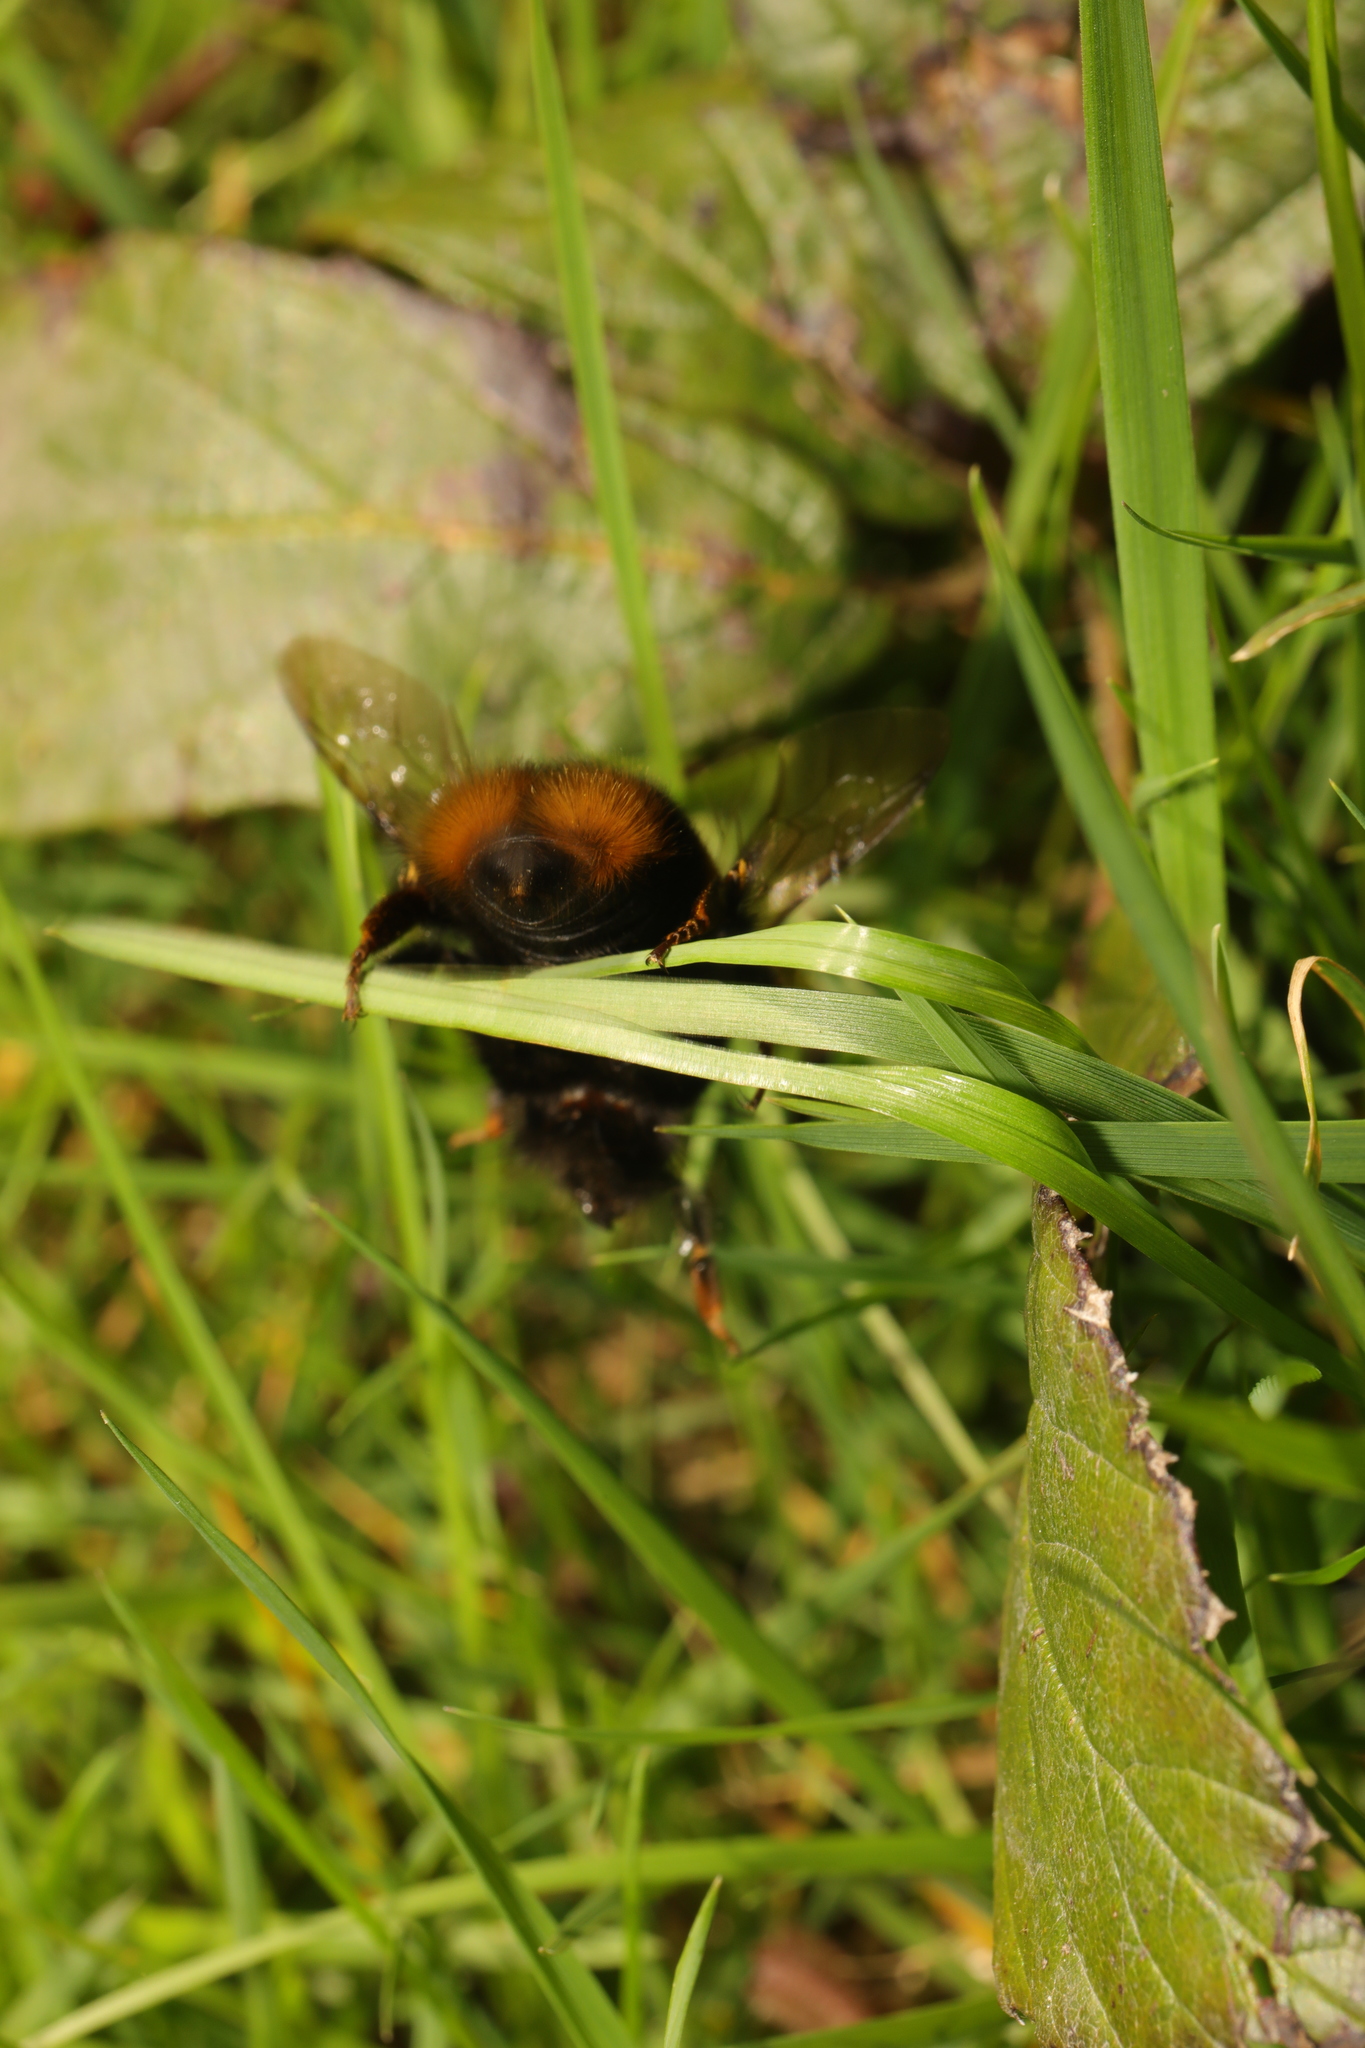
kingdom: Animalia
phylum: Arthropoda
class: Insecta
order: Hymenoptera
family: Apidae
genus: Bombus
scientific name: Bombus terrestris
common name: Buff-tailed bumblebee
